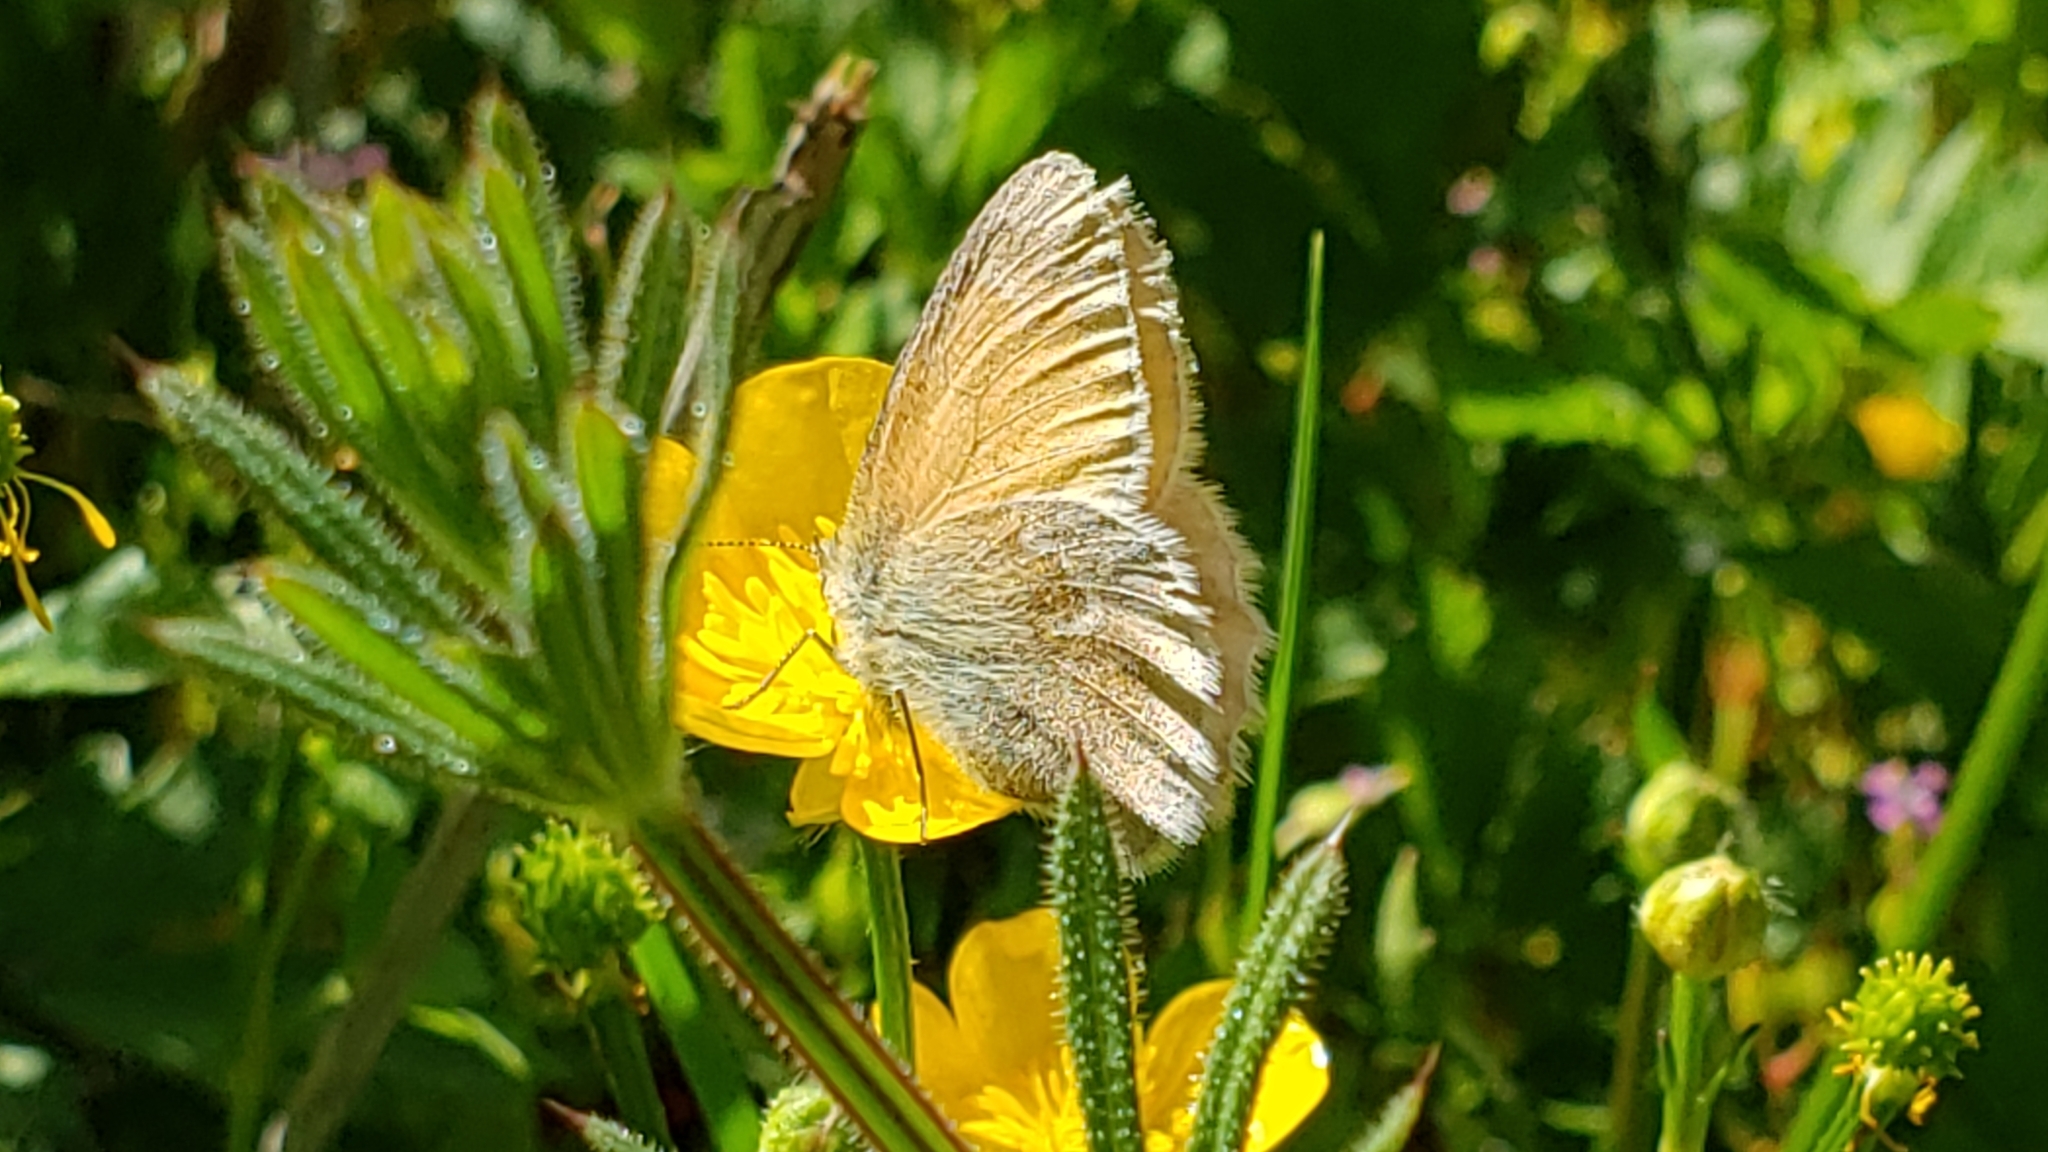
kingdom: Animalia
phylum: Arthropoda
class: Insecta
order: Lepidoptera
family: Nymphalidae
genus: Coenonympha
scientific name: Coenonympha california
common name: Common ringlet
